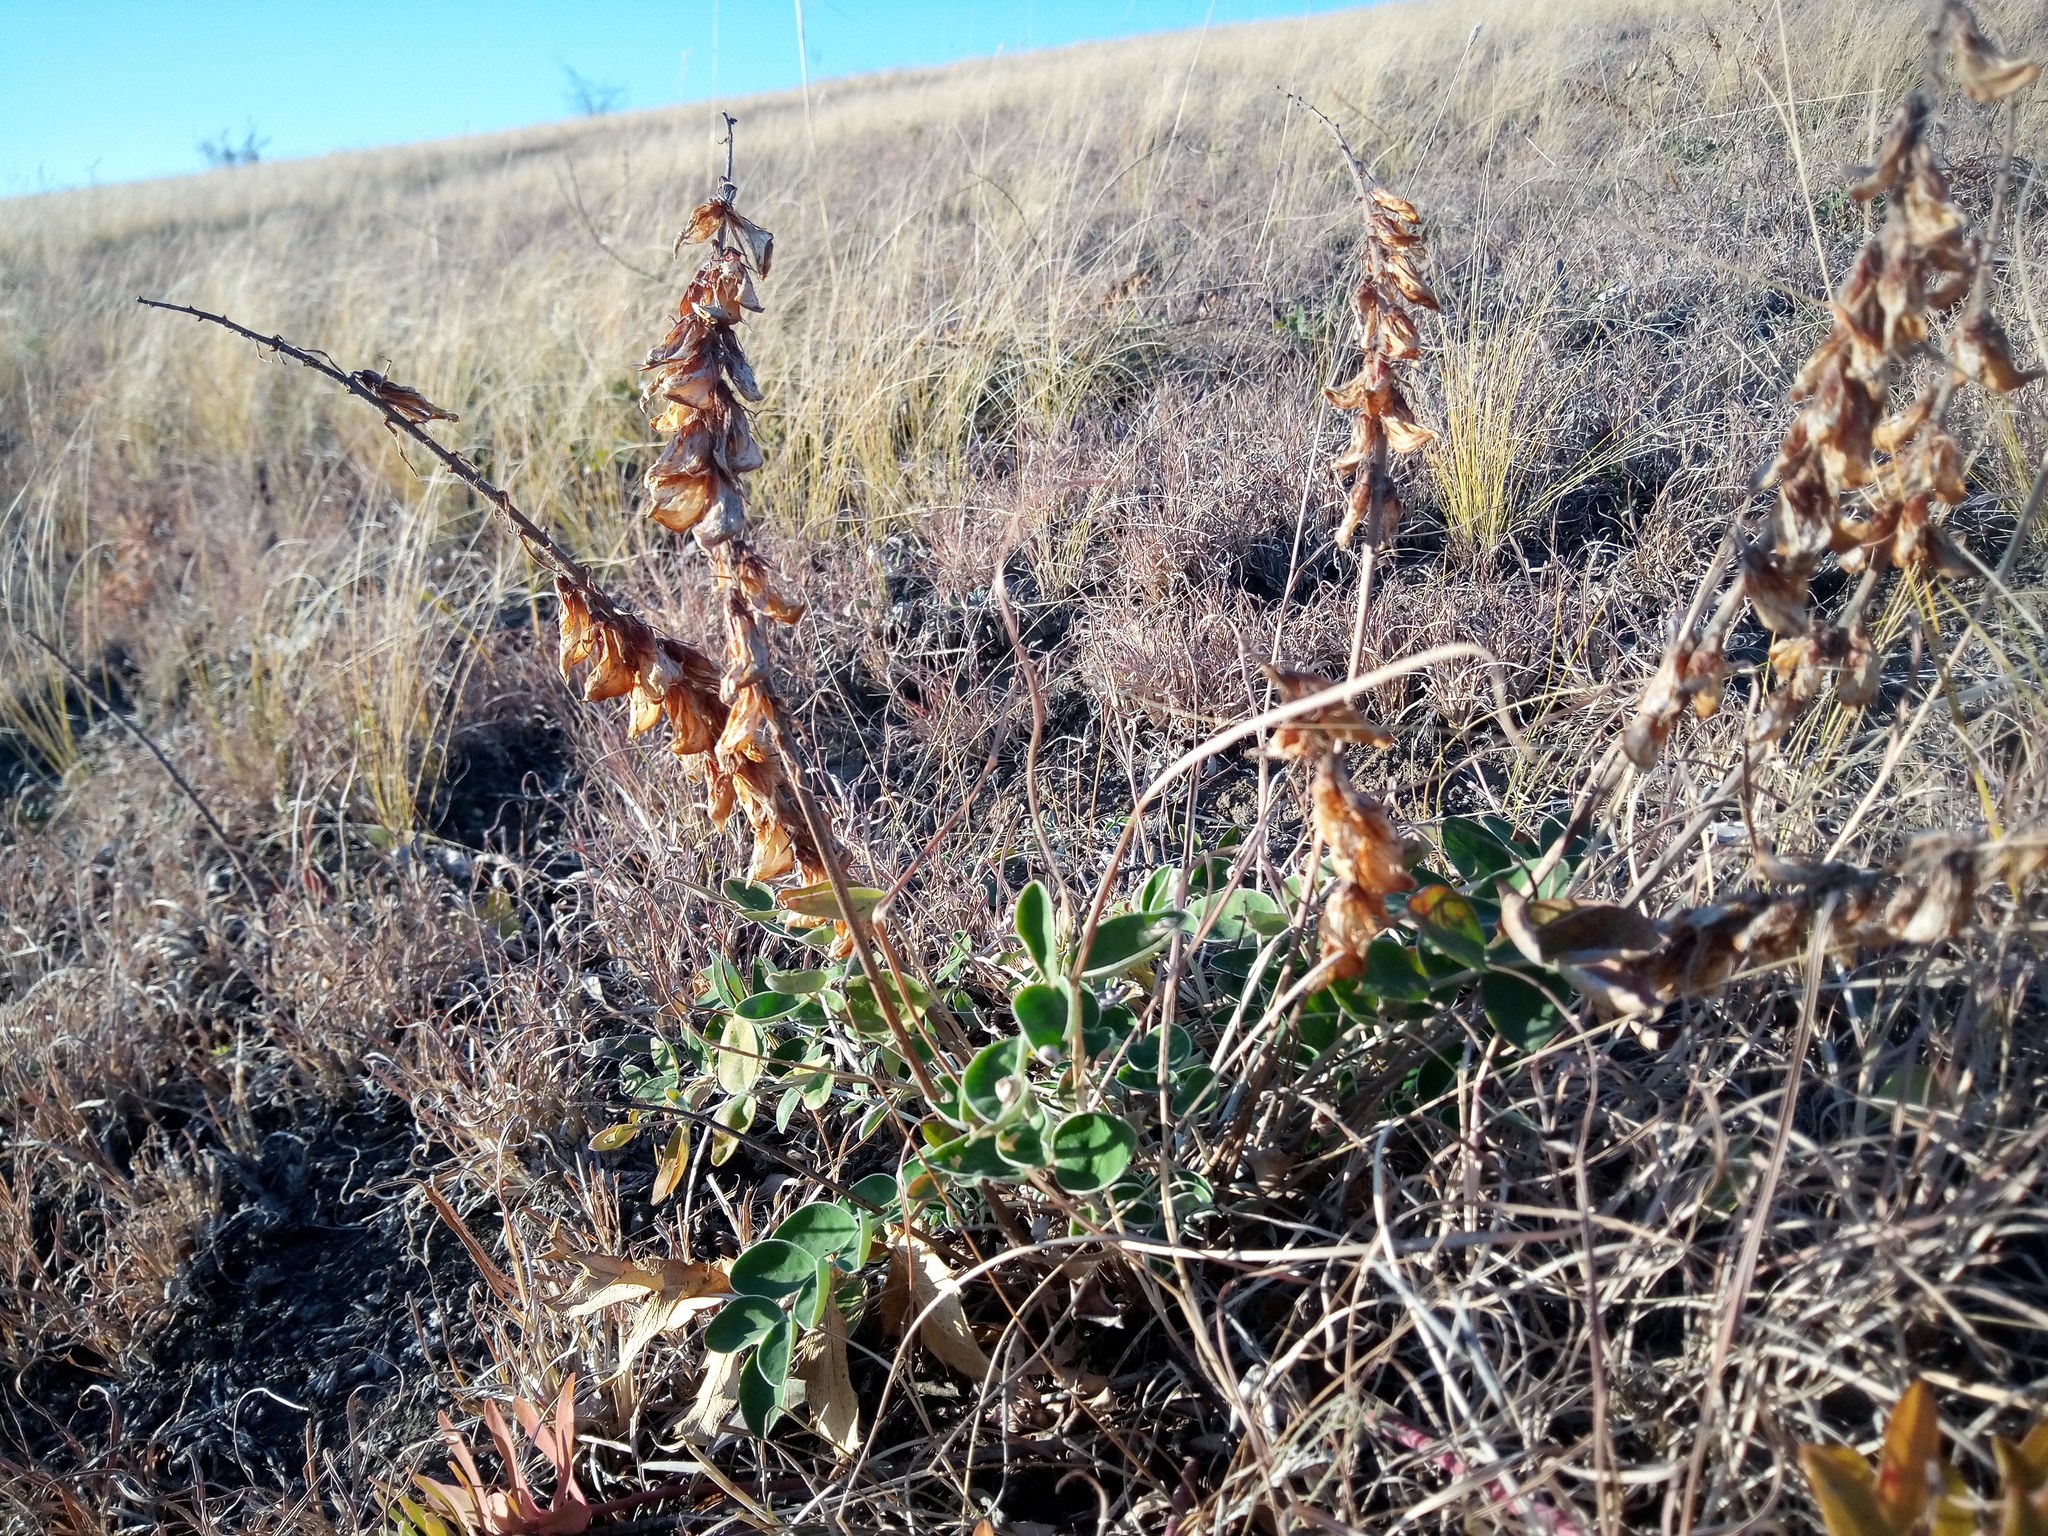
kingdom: Plantae
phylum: Tracheophyta
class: Magnoliopsida
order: Fabales
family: Fabaceae
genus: Hedysarum
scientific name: Hedysarum grandiflorum
